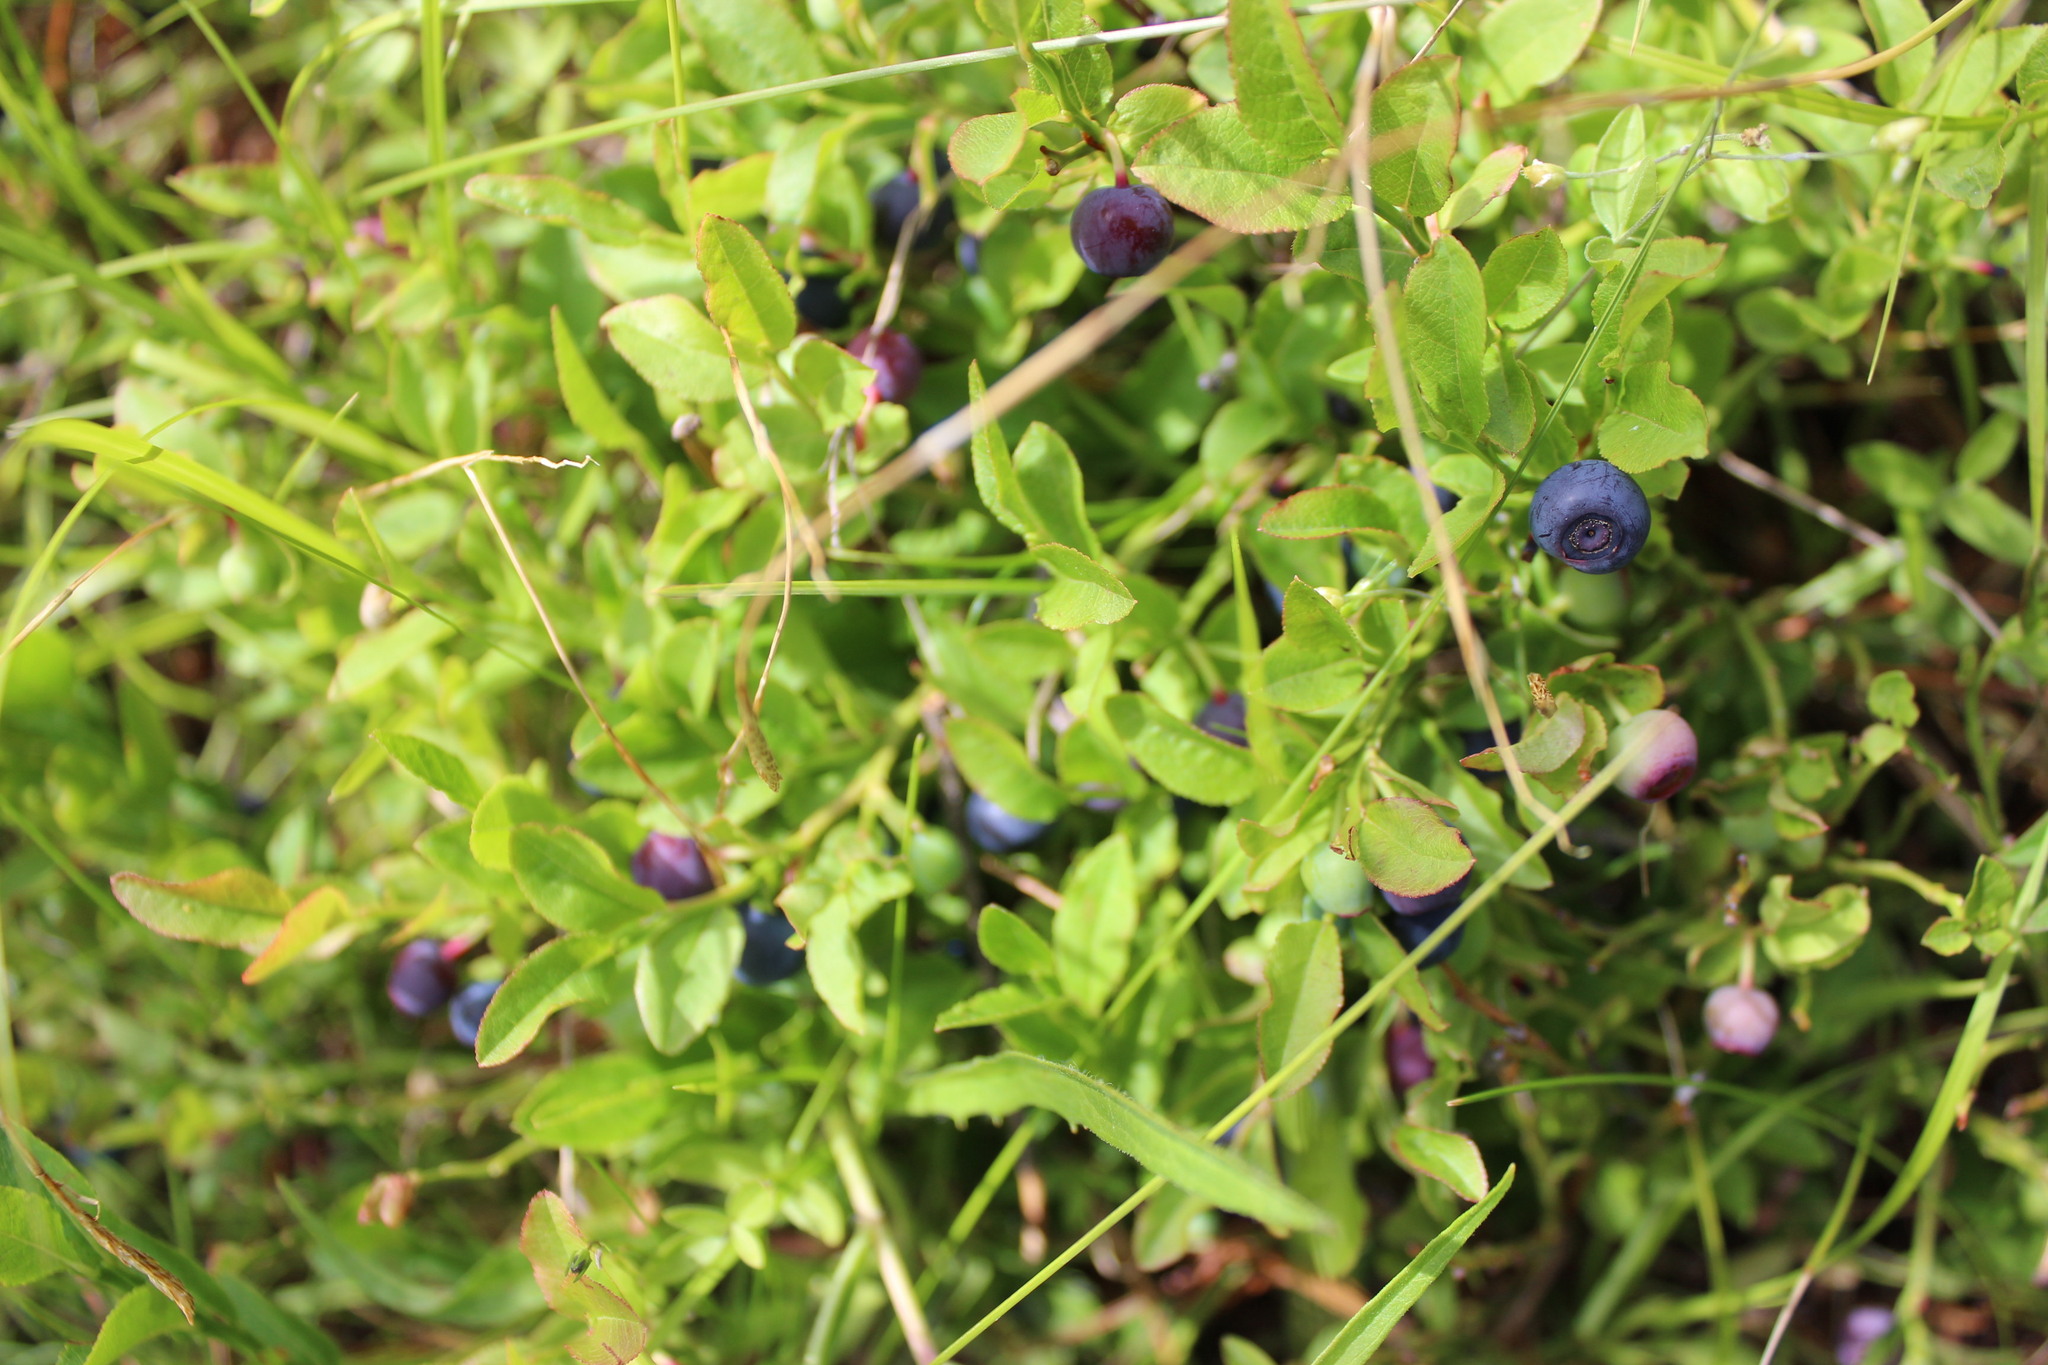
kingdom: Plantae
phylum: Tracheophyta
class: Magnoliopsida
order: Ericales
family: Ericaceae
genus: Vaccinium
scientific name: Vaccinium myrtillus
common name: Bilberry
